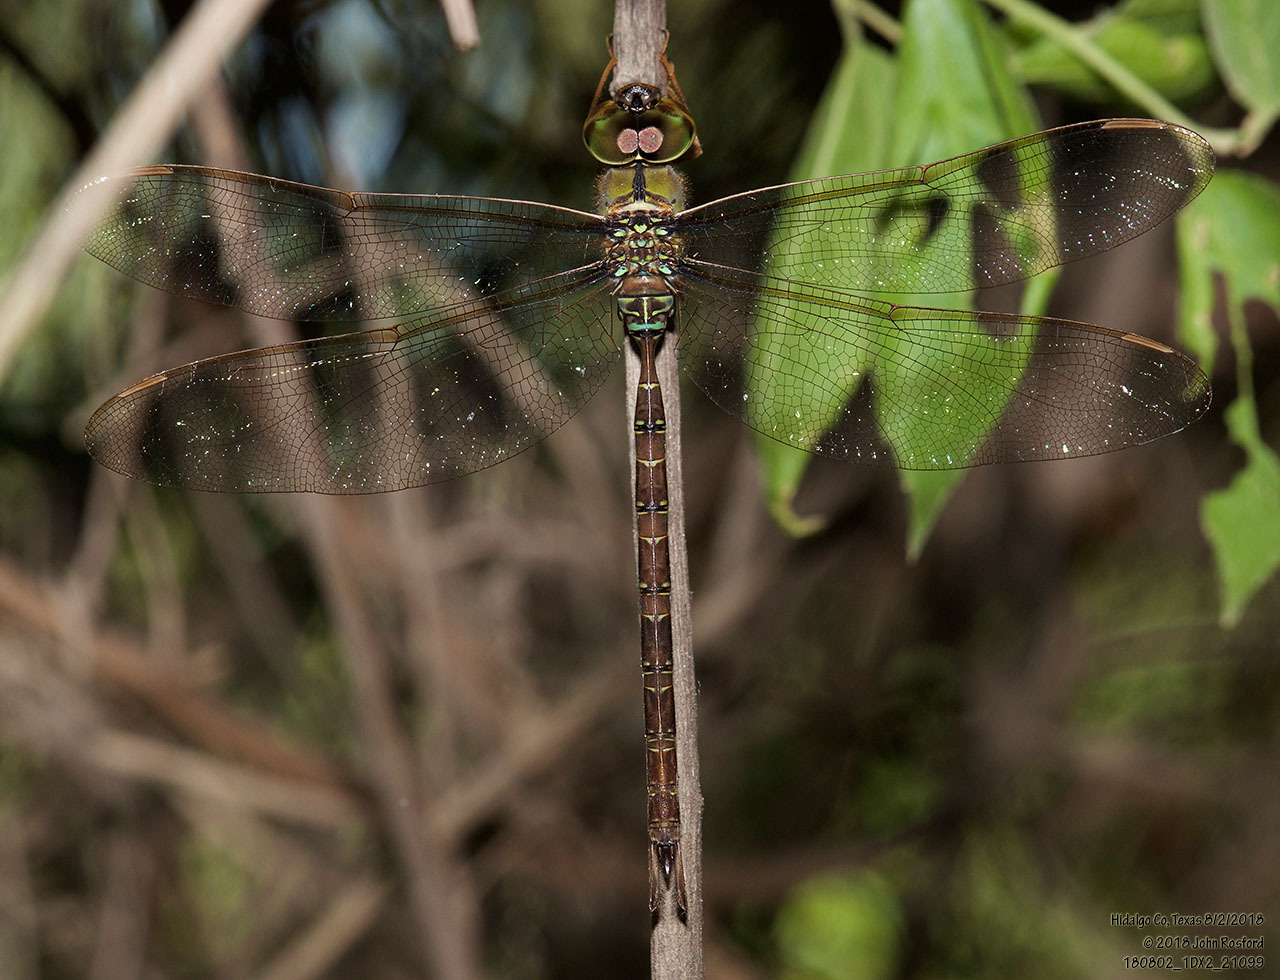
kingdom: Animalia
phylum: Arthropoda
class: Insecta
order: Odonata
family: Aeshnidae
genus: Gynacantha
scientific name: Gynacantha mexicana
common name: Bar-sided darner
